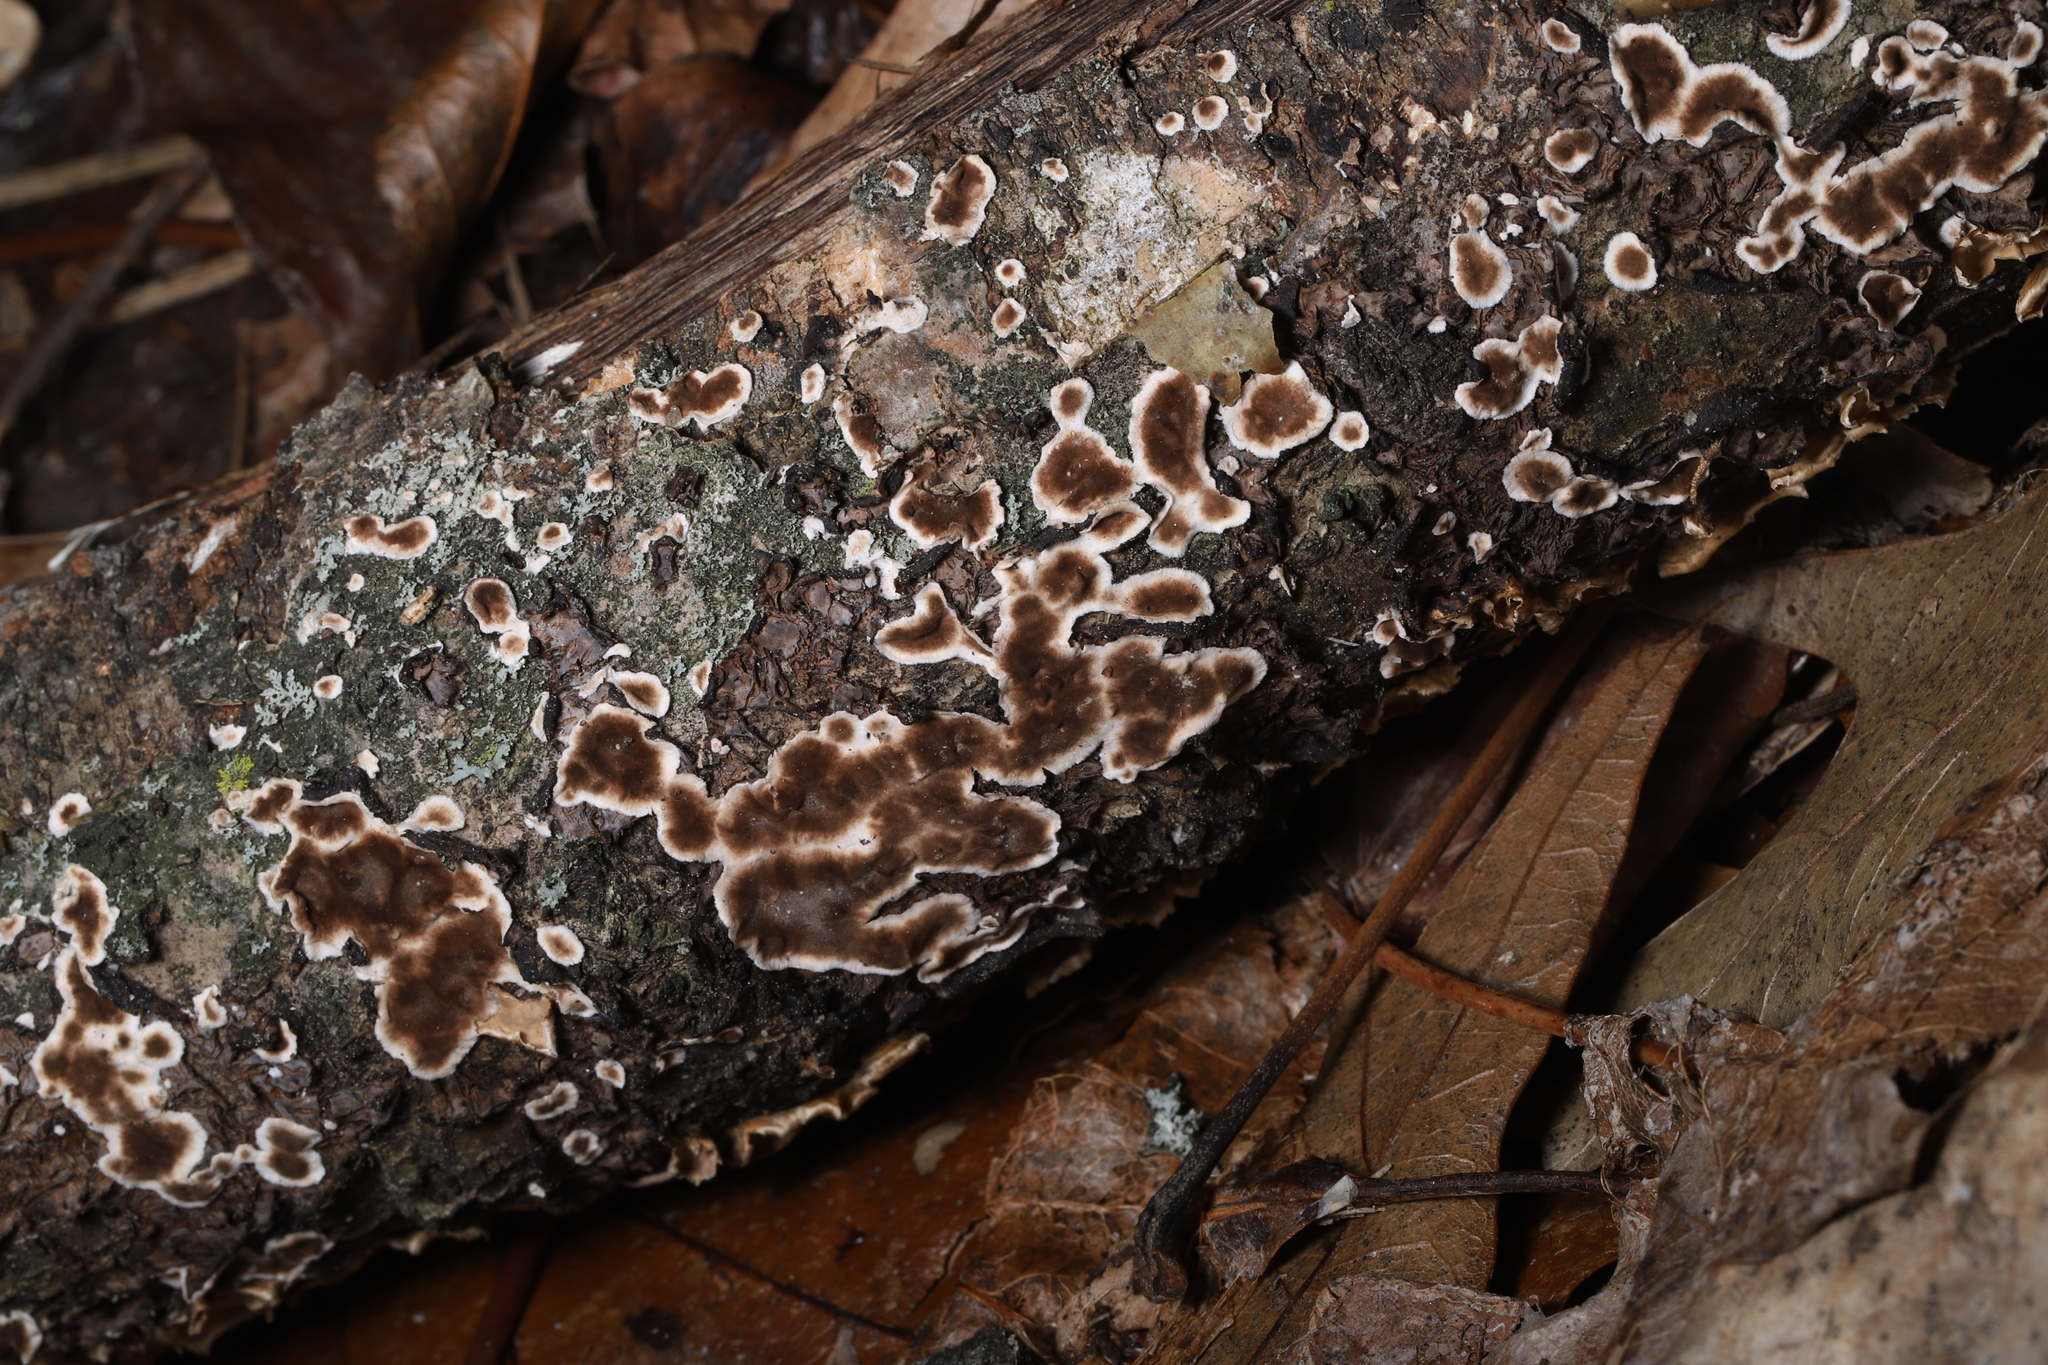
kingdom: Fungi
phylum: Basidiomycota
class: Agaricomycetes
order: Russulales
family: Peniophoraceae
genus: Peniophora
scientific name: Peniophora albobadia
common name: Giraffe spots
